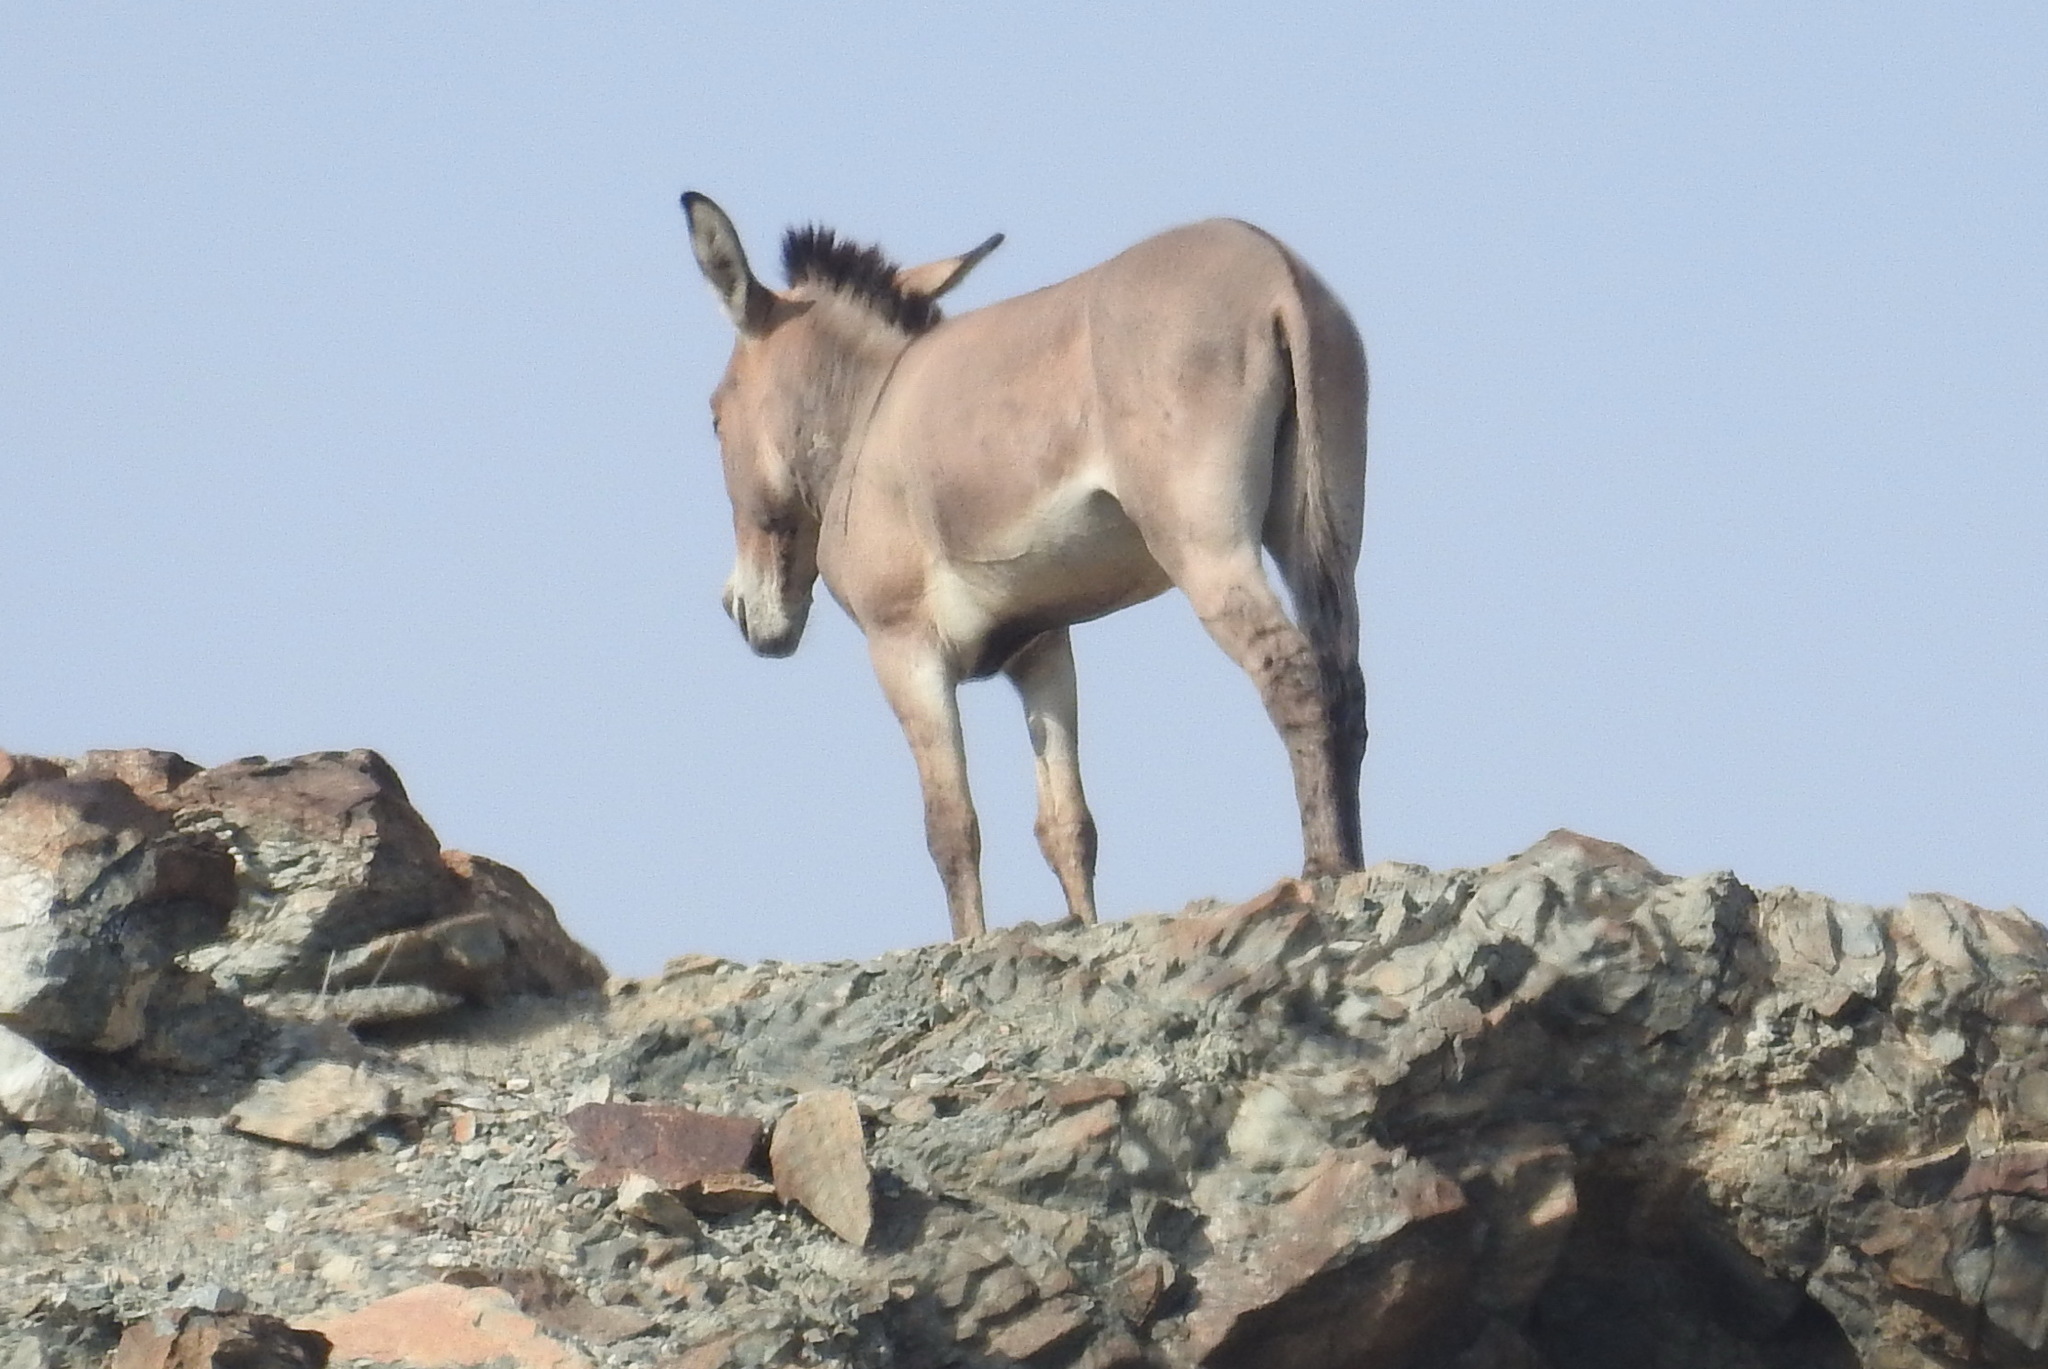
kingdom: Animalia
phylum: Chordata
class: Mammalia
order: Perissodactyla
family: Equidae
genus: Equus
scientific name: Equus asinus
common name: Ass
